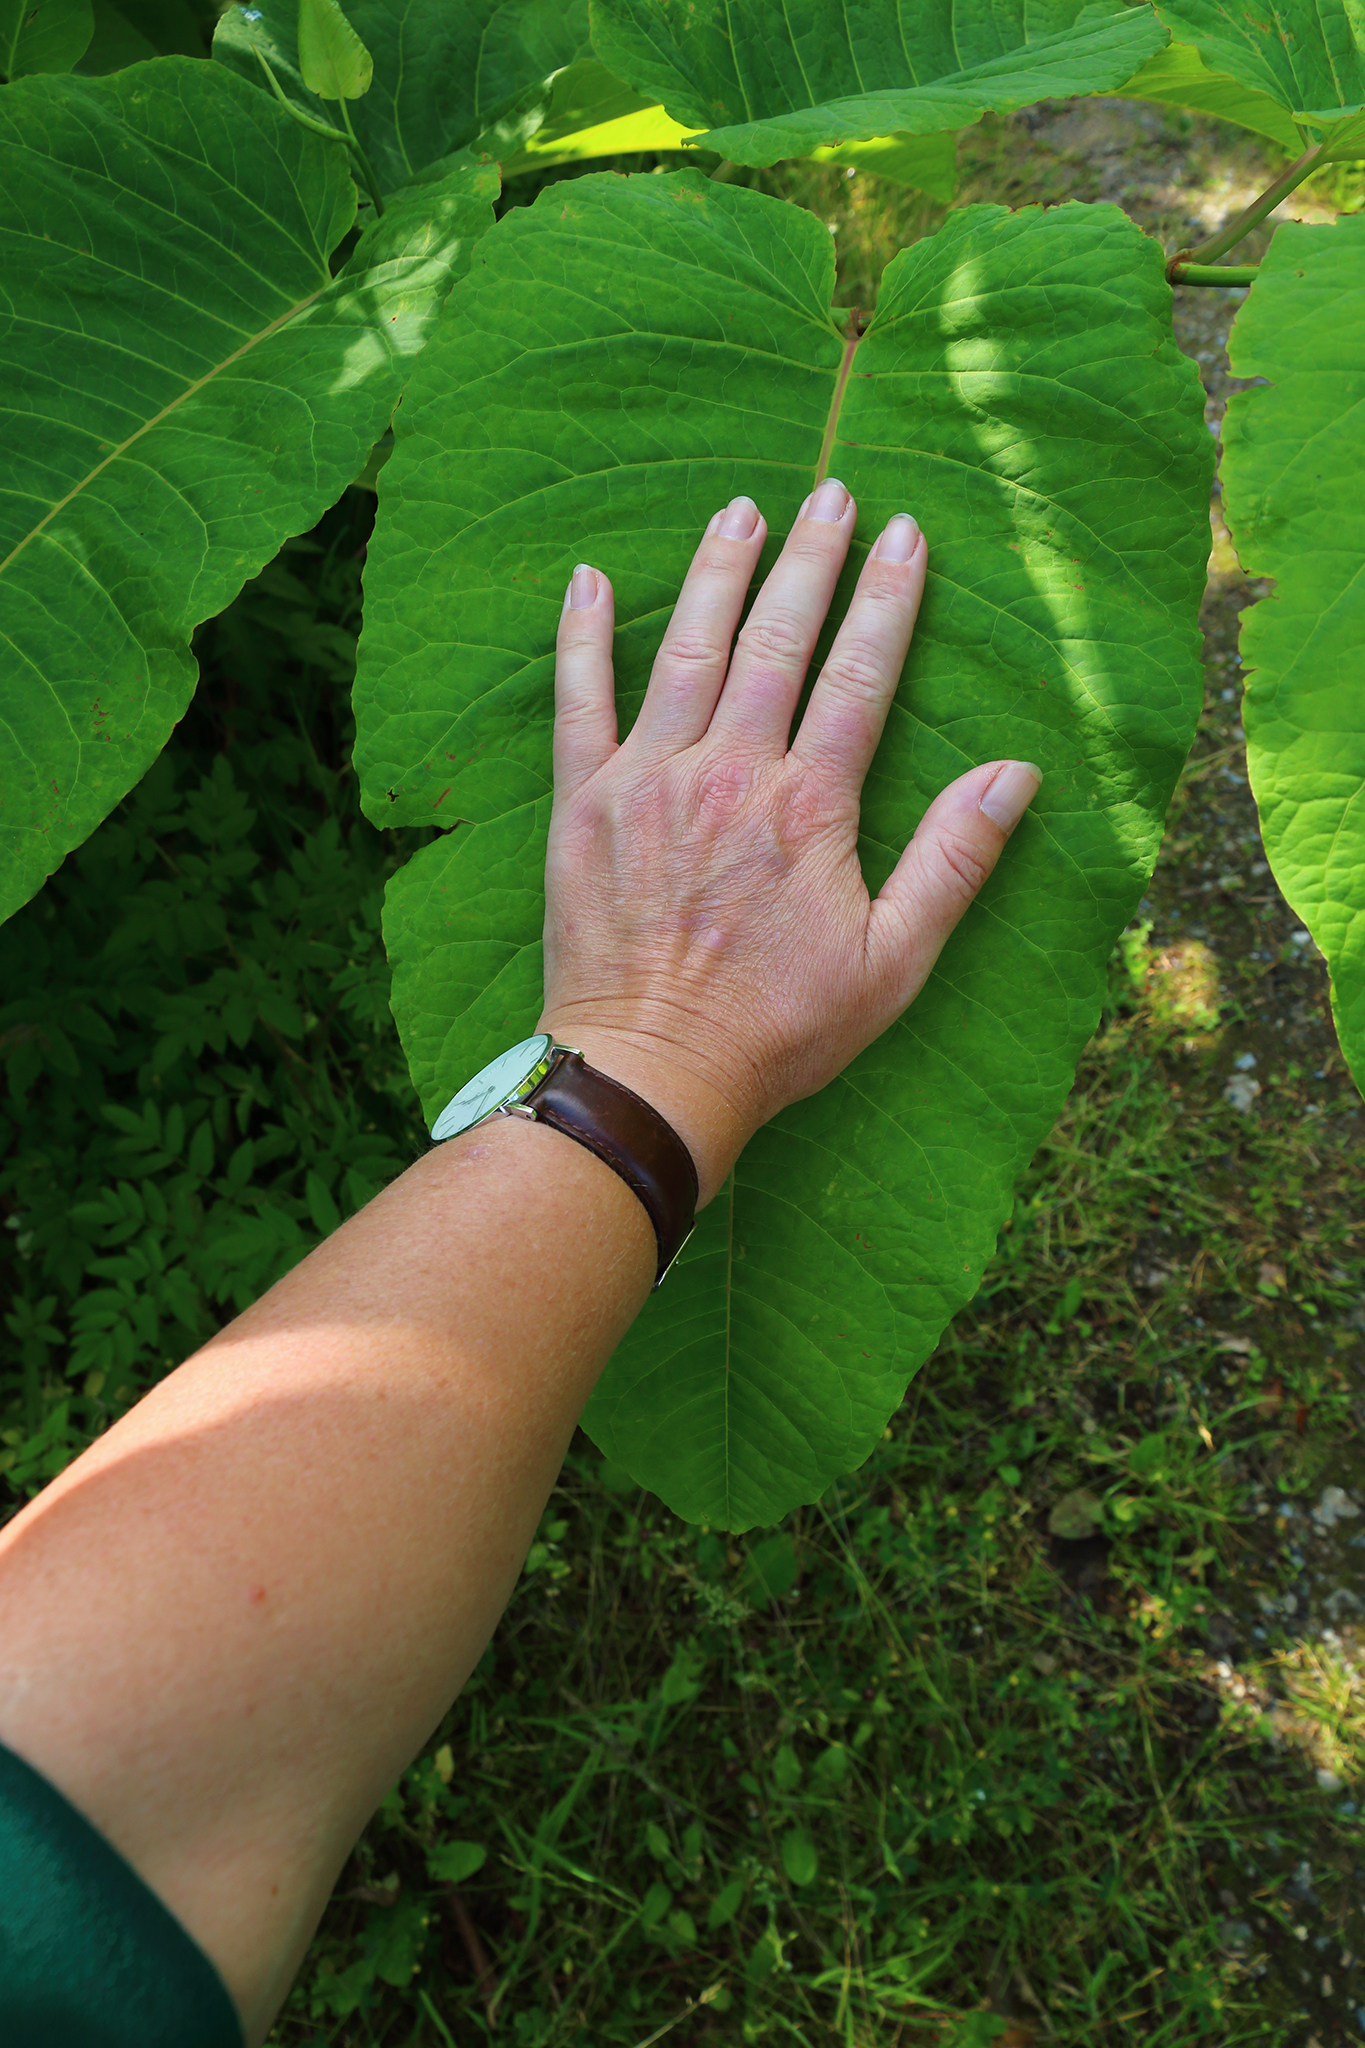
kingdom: Plantae
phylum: Tracheophyta
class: Magnoliopsida
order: Caryophyllales
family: Polygonaceae
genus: Reynoutria
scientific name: Reynoutria sachalinensis
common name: Giant knotweed
